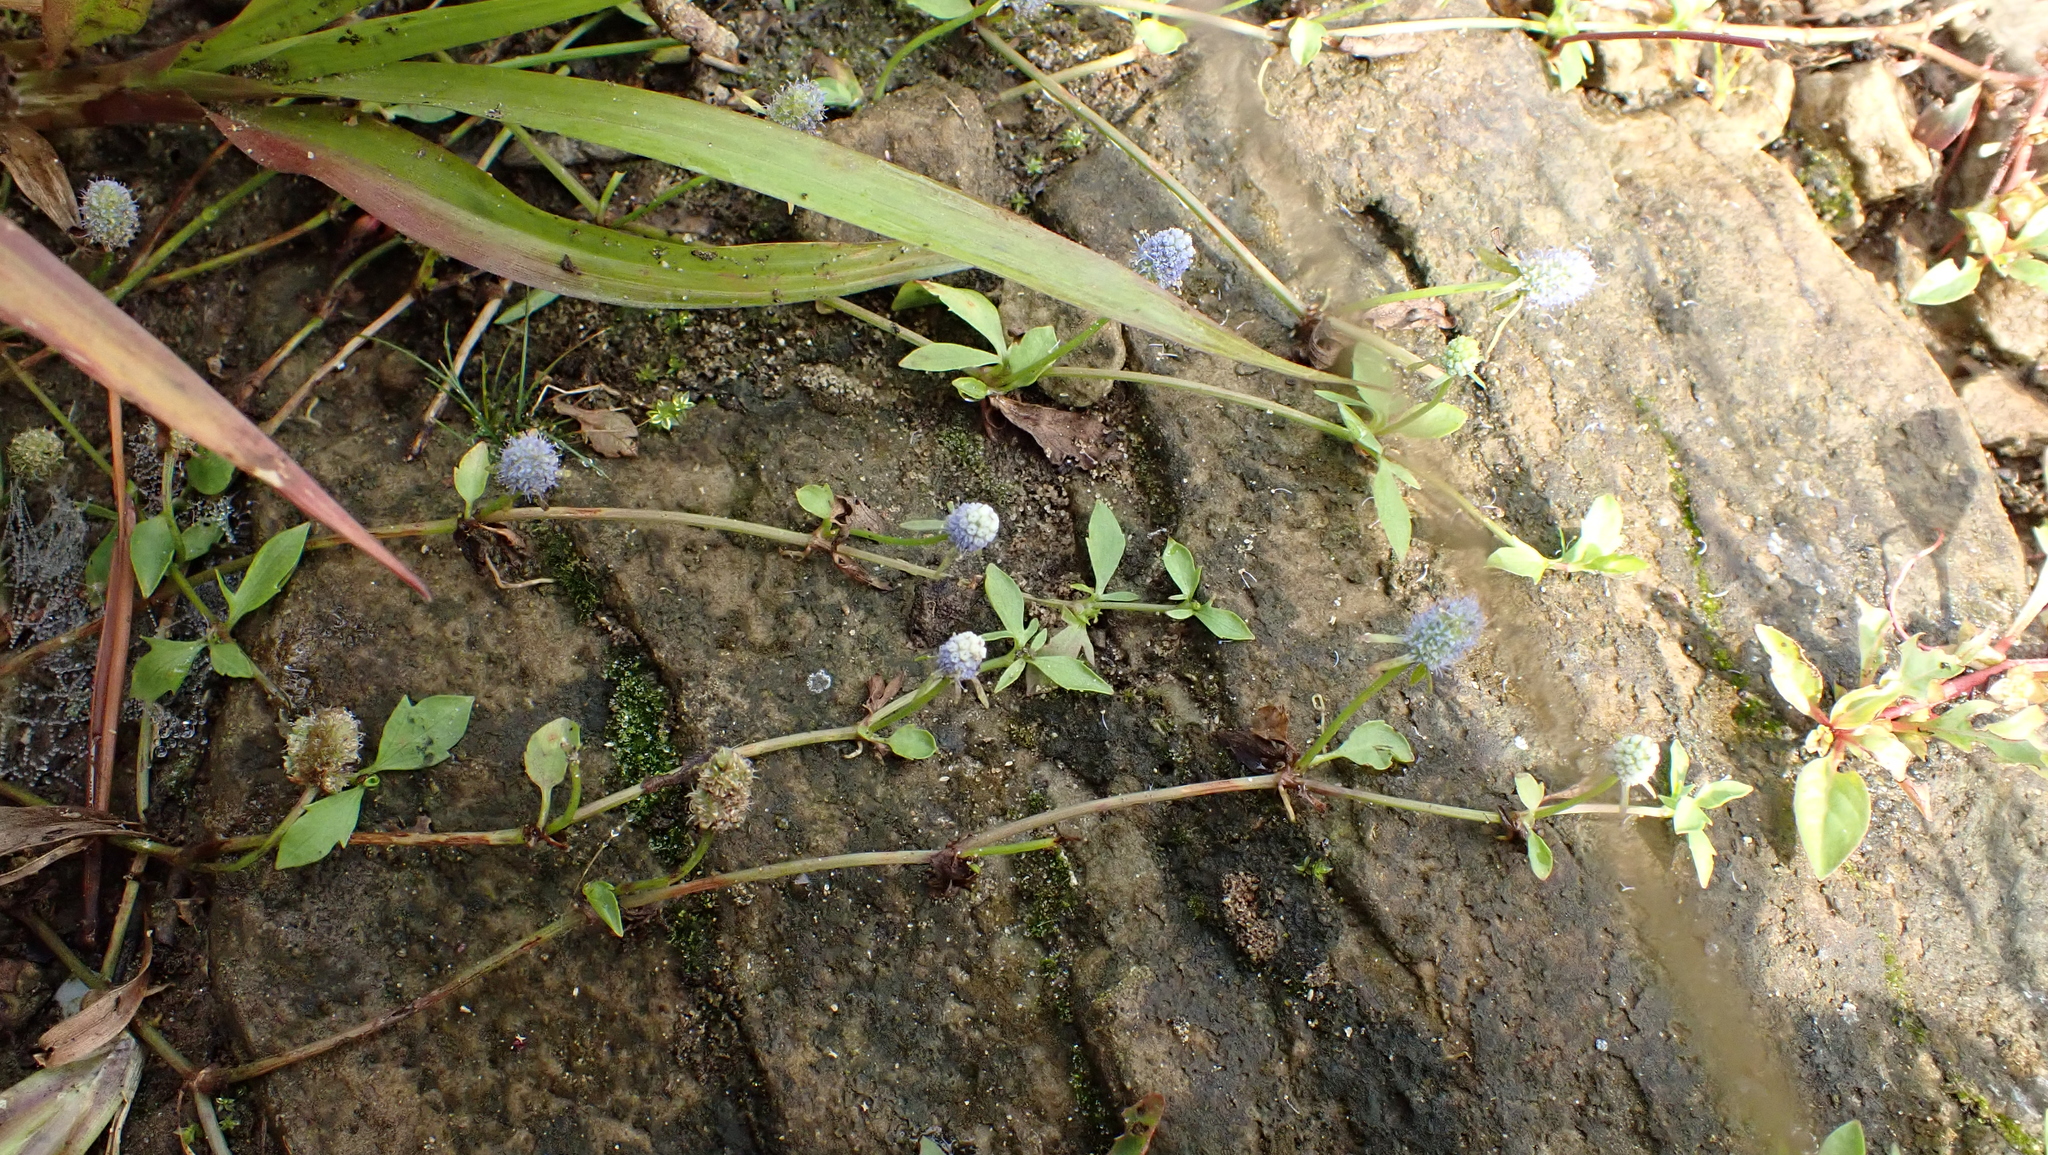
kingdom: Plantae
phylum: Tracheophyta
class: Magnoliopsida
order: Apiales
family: Apiaceae
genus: Eryngium
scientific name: Eryngium prostratum
